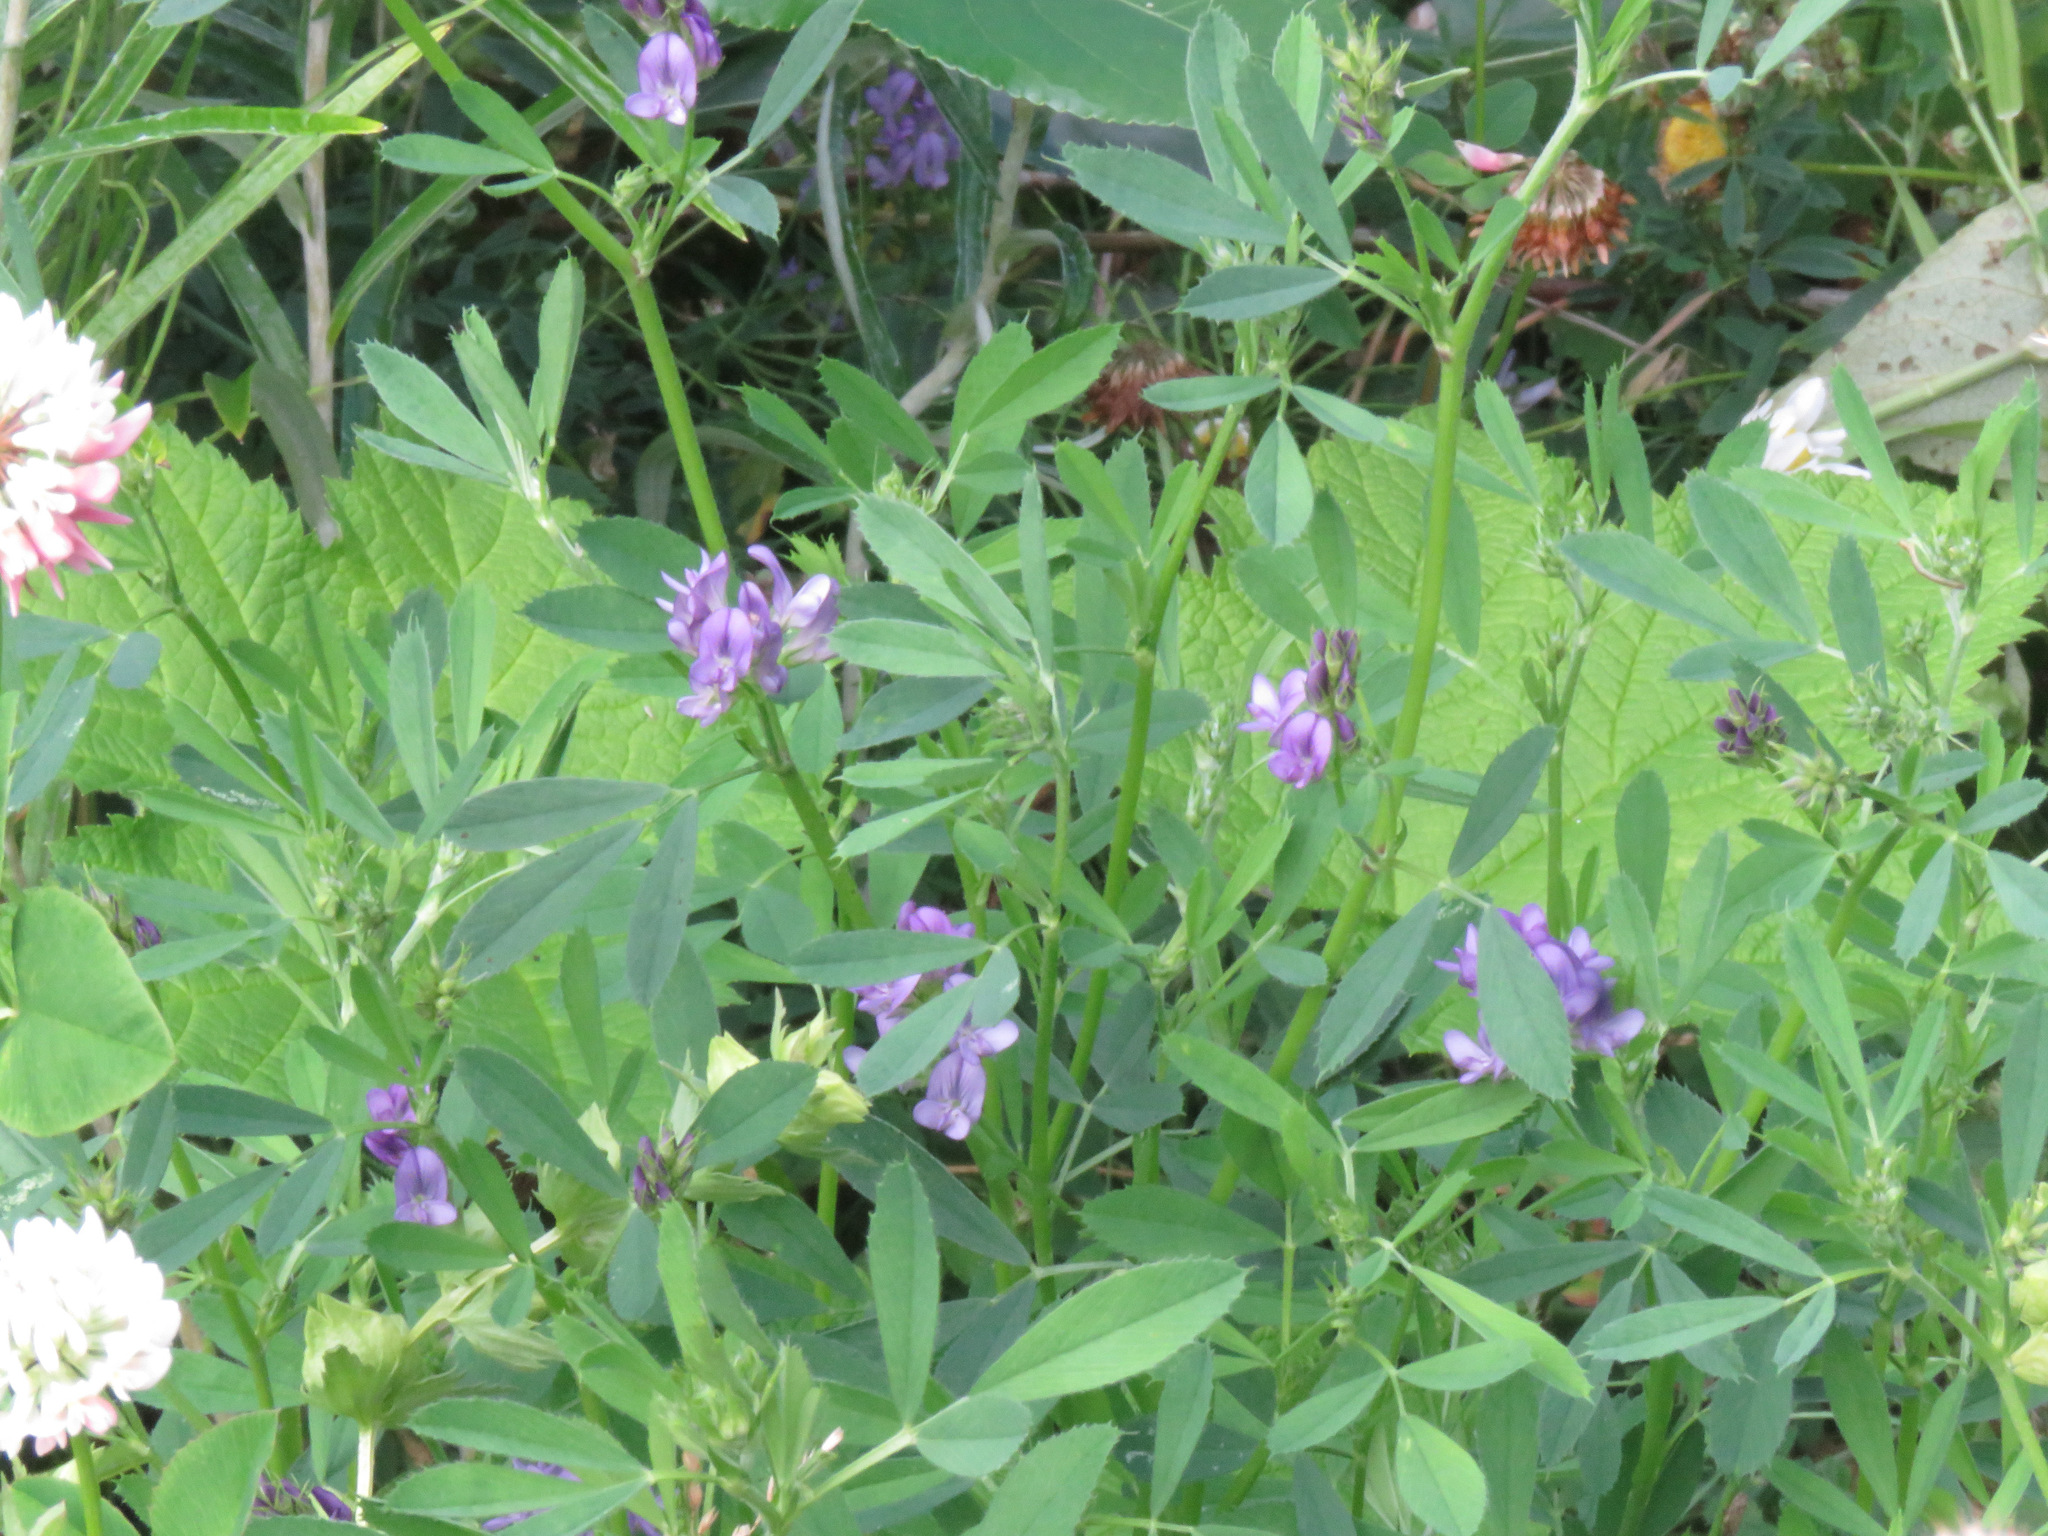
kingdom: Plantae
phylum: Tracheophyta
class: Magnoliopsida
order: Fabales
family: Fabaceae
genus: Medicago
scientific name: Medicago sativa
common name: Alfalfa
